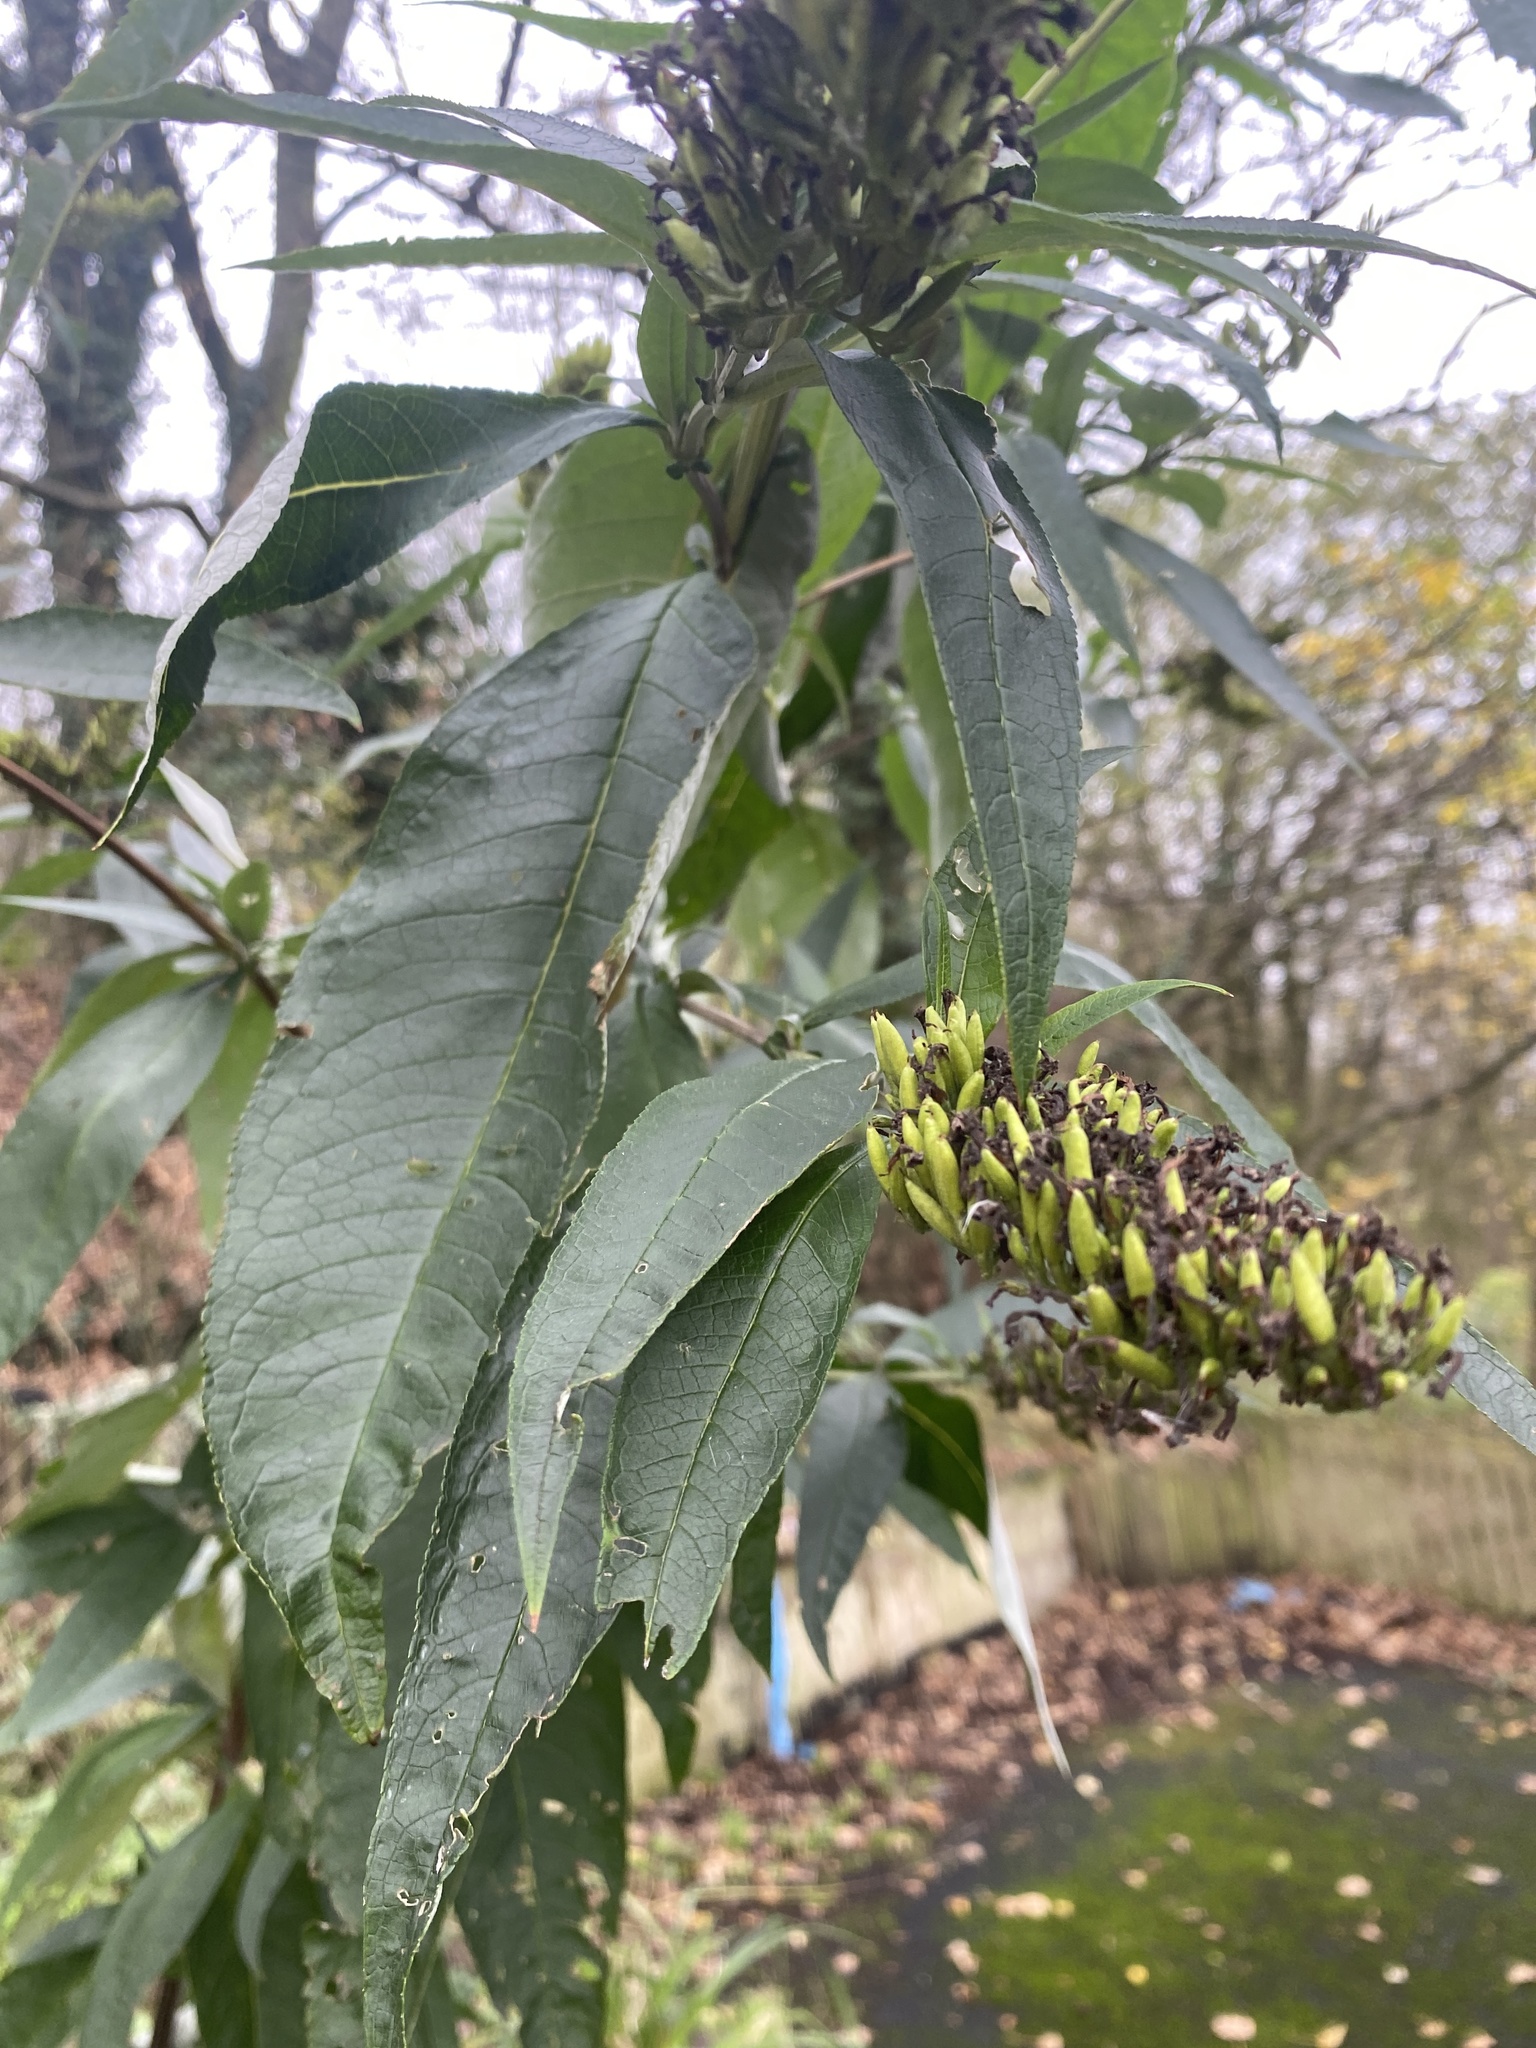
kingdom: Plantae
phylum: Tracheophyta
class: Magnoliopsida
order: Lamiales
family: Scrophulariaceae
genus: Buddleja
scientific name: Buddleja davidii
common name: Butterfly-bush
